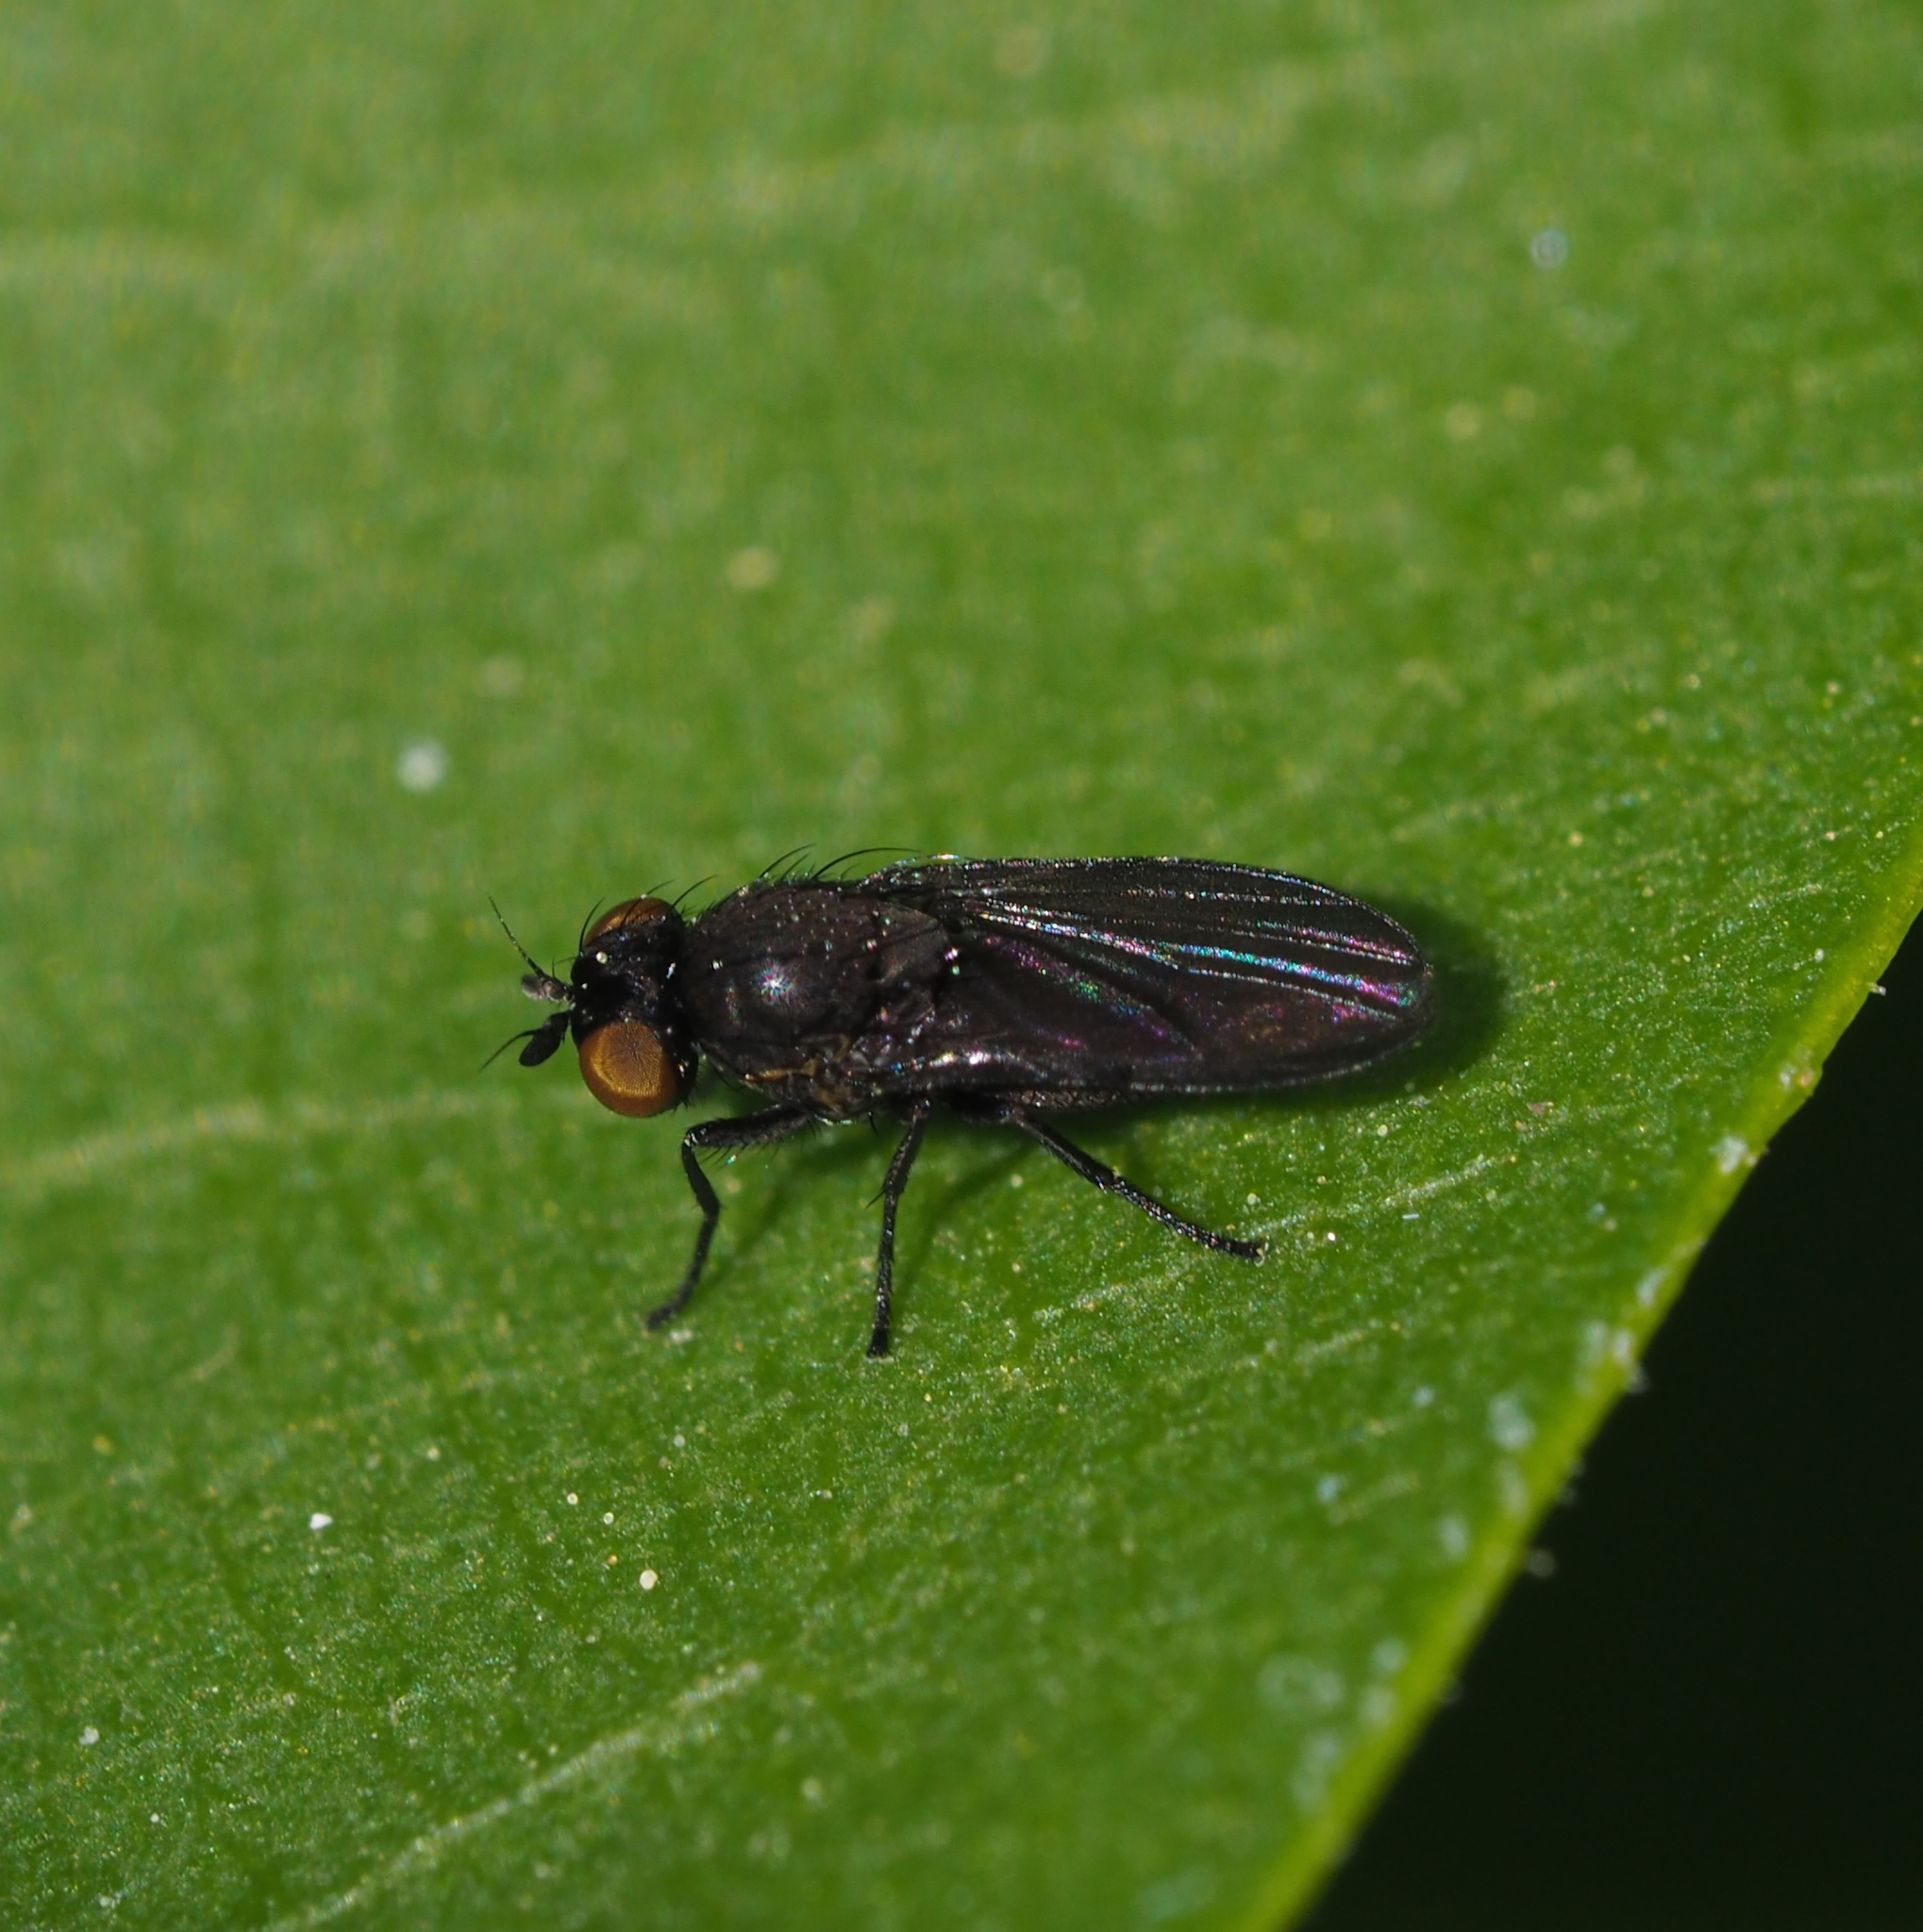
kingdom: Animalia
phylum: Arthropoda
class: Insecta
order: Diptera
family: Lauxaniidae
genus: Cnemacantha
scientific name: Cnemacantha muscaria
